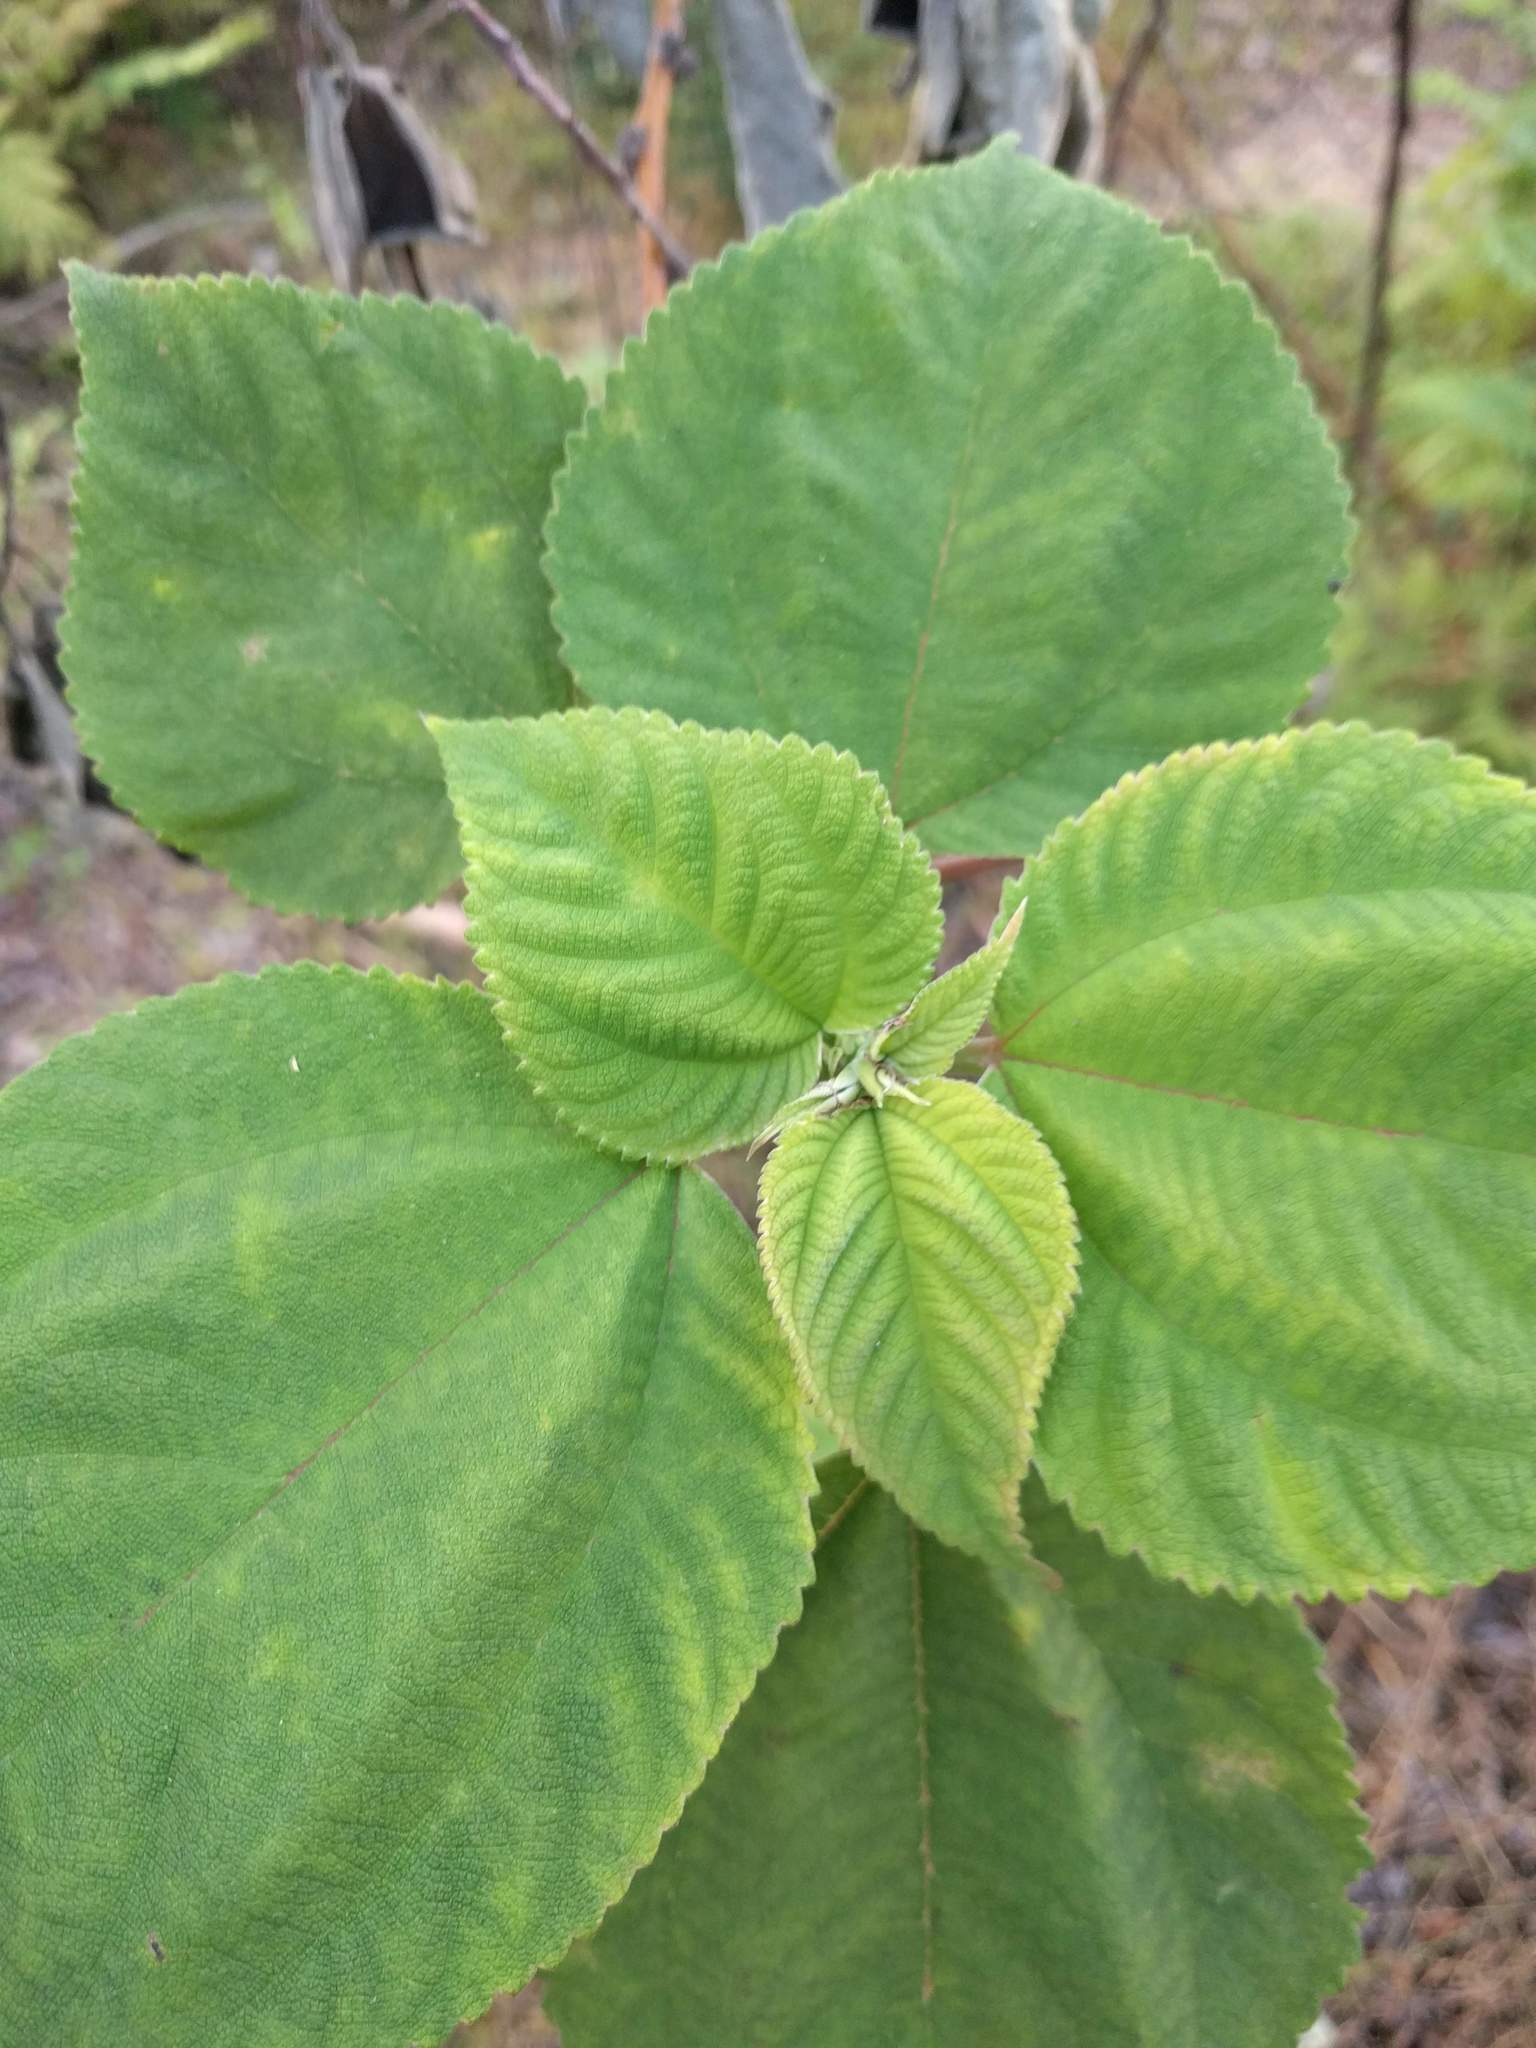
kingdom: Plantae
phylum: Tracheophyta
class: Magnoliopsida
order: Rosales
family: Urticaceae
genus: Pipturus
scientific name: Pipturus albidus
